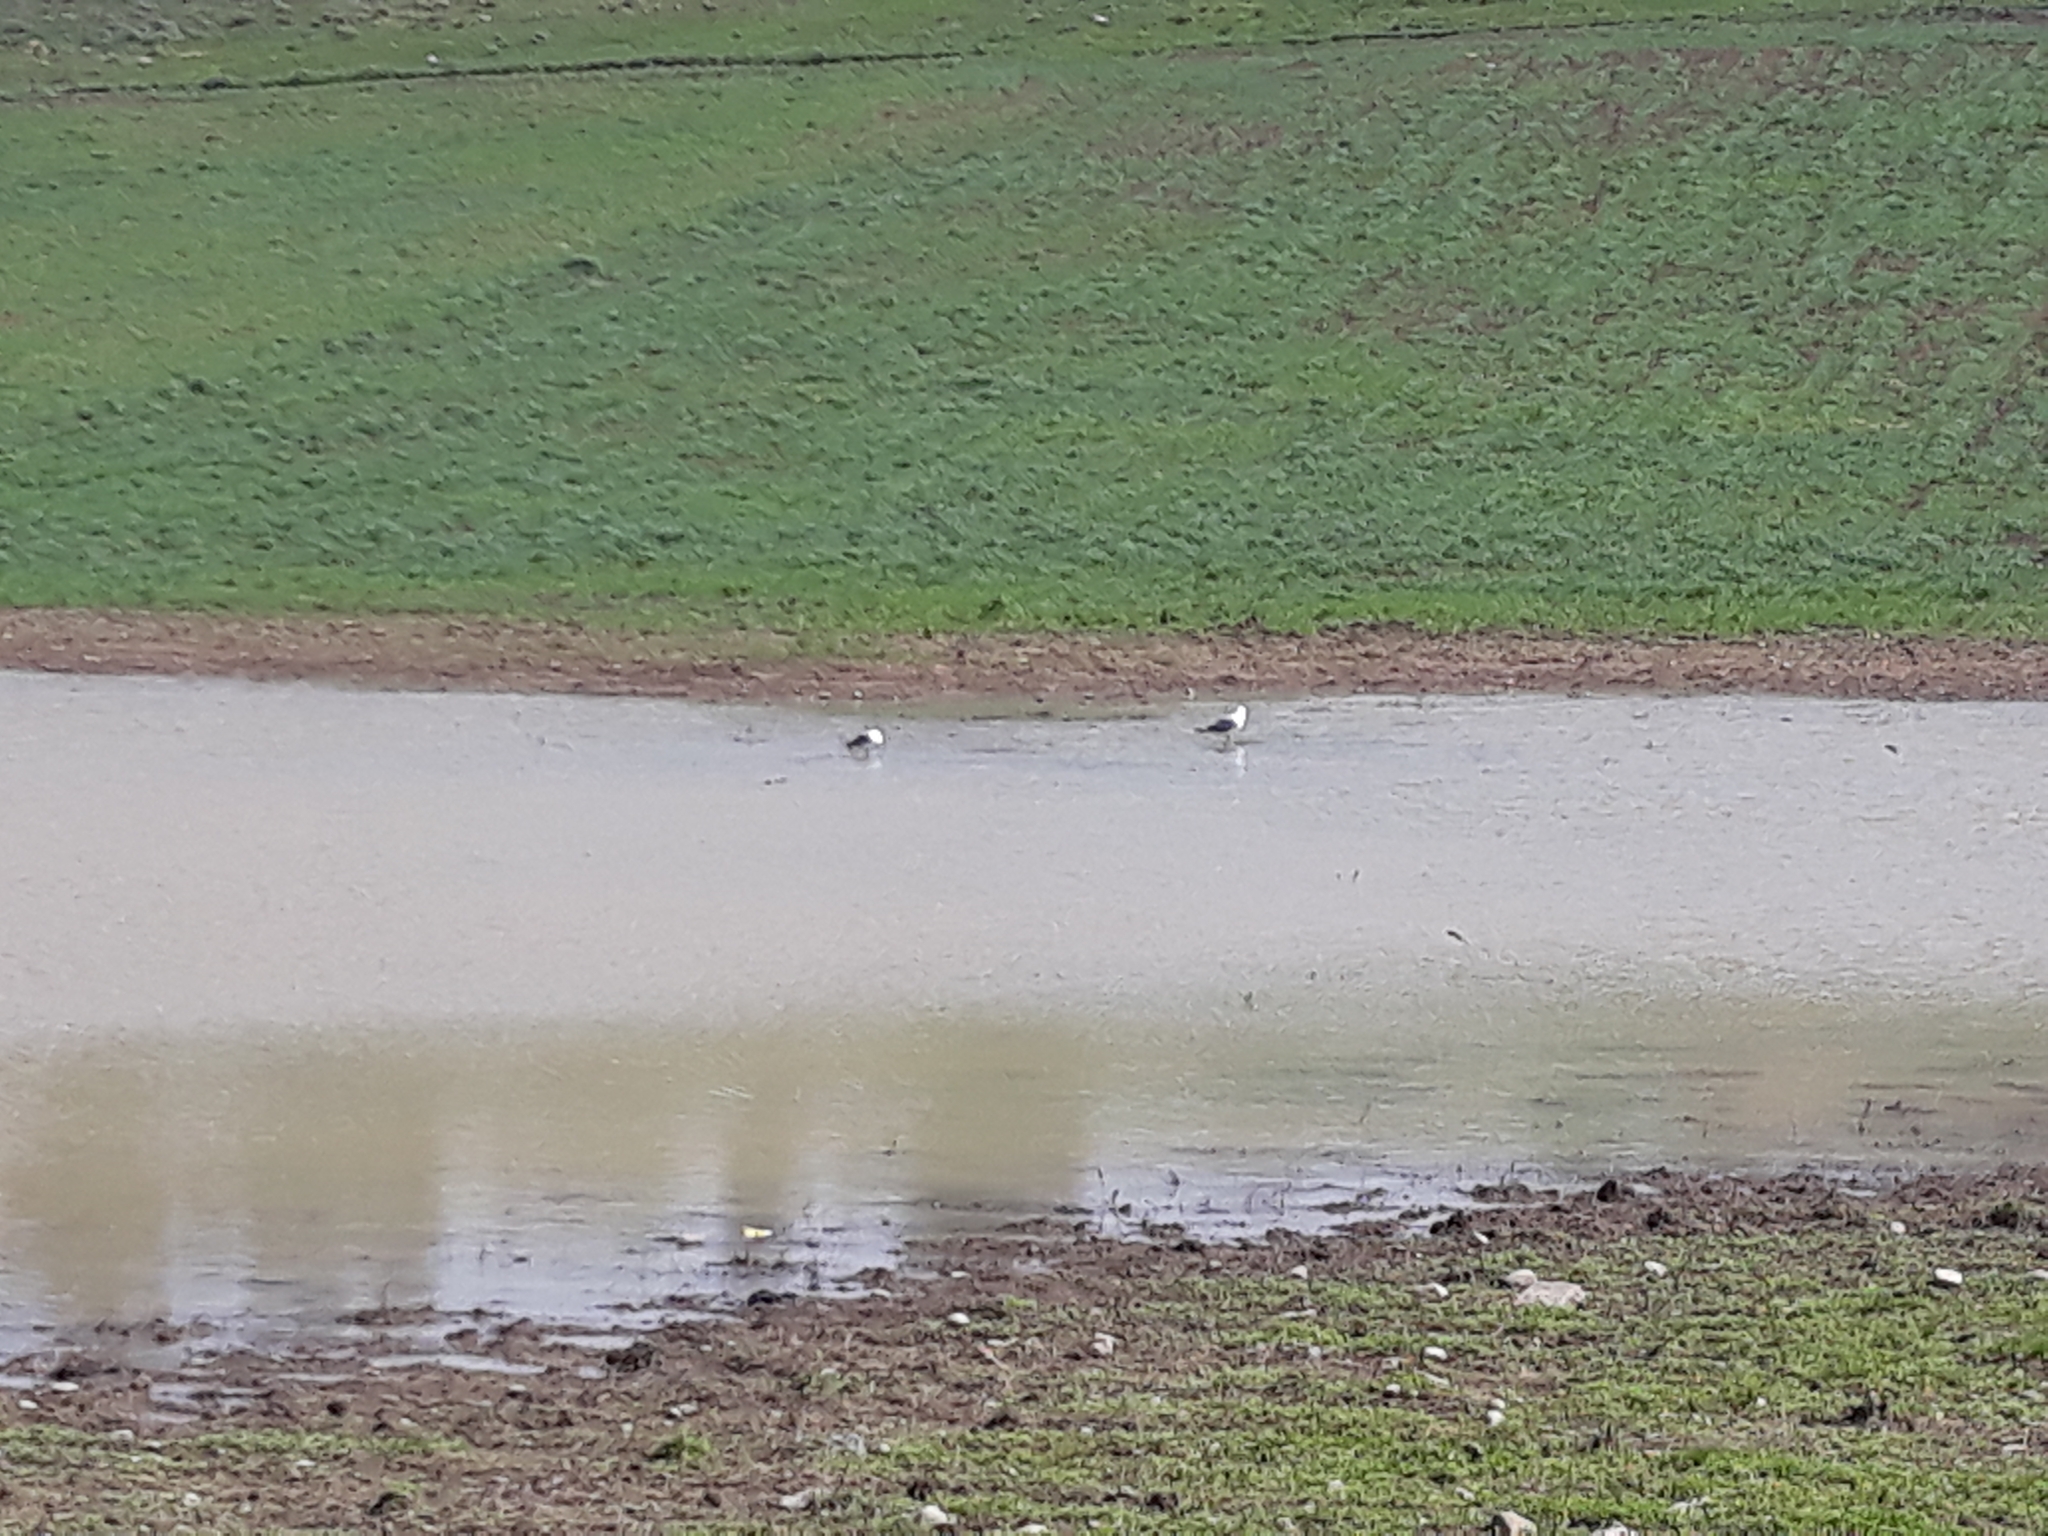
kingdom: Animalia
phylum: Chordata
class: Aves
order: Charadriiformes
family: Laridae
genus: Larus
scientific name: Larus michahellis
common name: Yellow-legged gull
